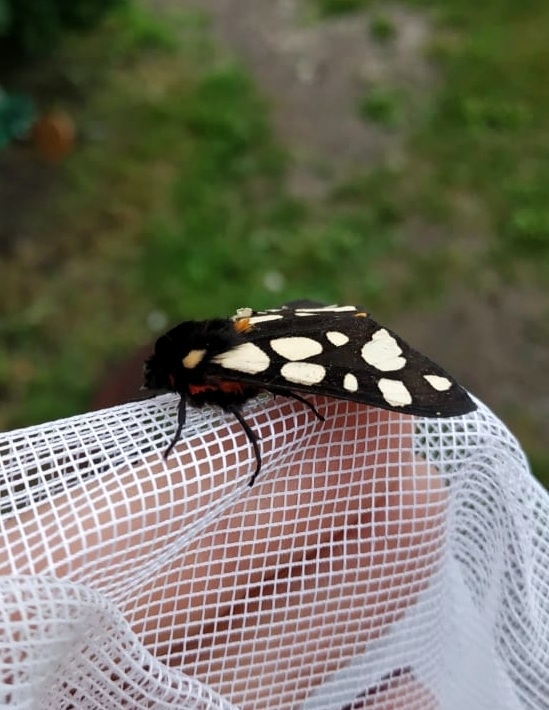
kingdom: Animalia
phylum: Arthropoda
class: Insecta
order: Lepidoptera
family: Erebidae
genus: Epicallia
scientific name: Epicallia villica
